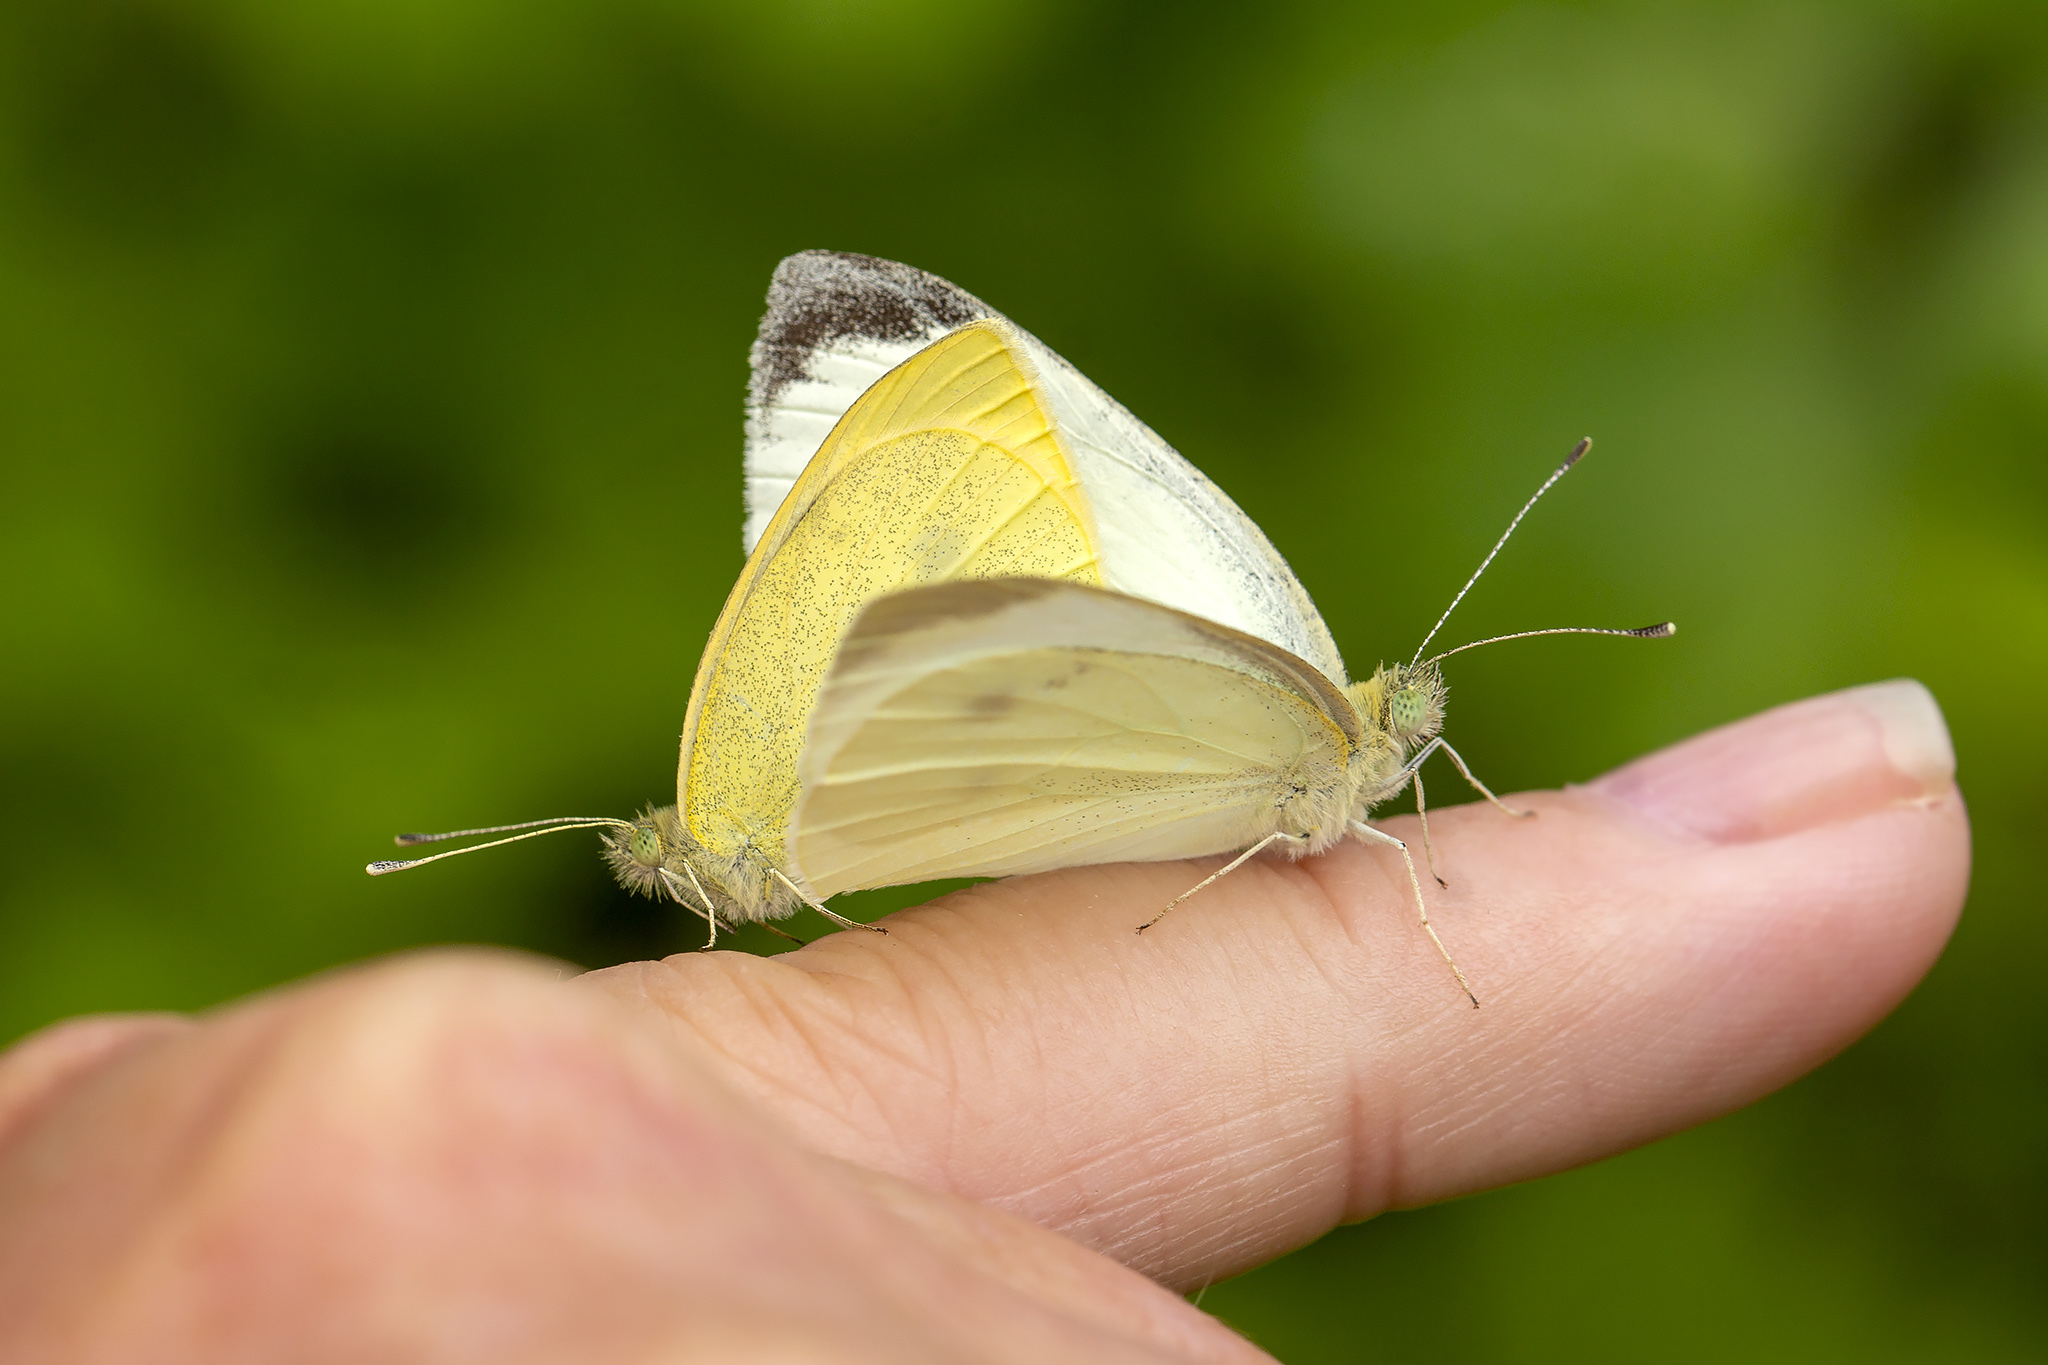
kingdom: Animalia
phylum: Arthropoda
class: Insecta
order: Lepidoptera
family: Pieridae
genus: Pieris
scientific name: Pieris rapae
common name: Small white
